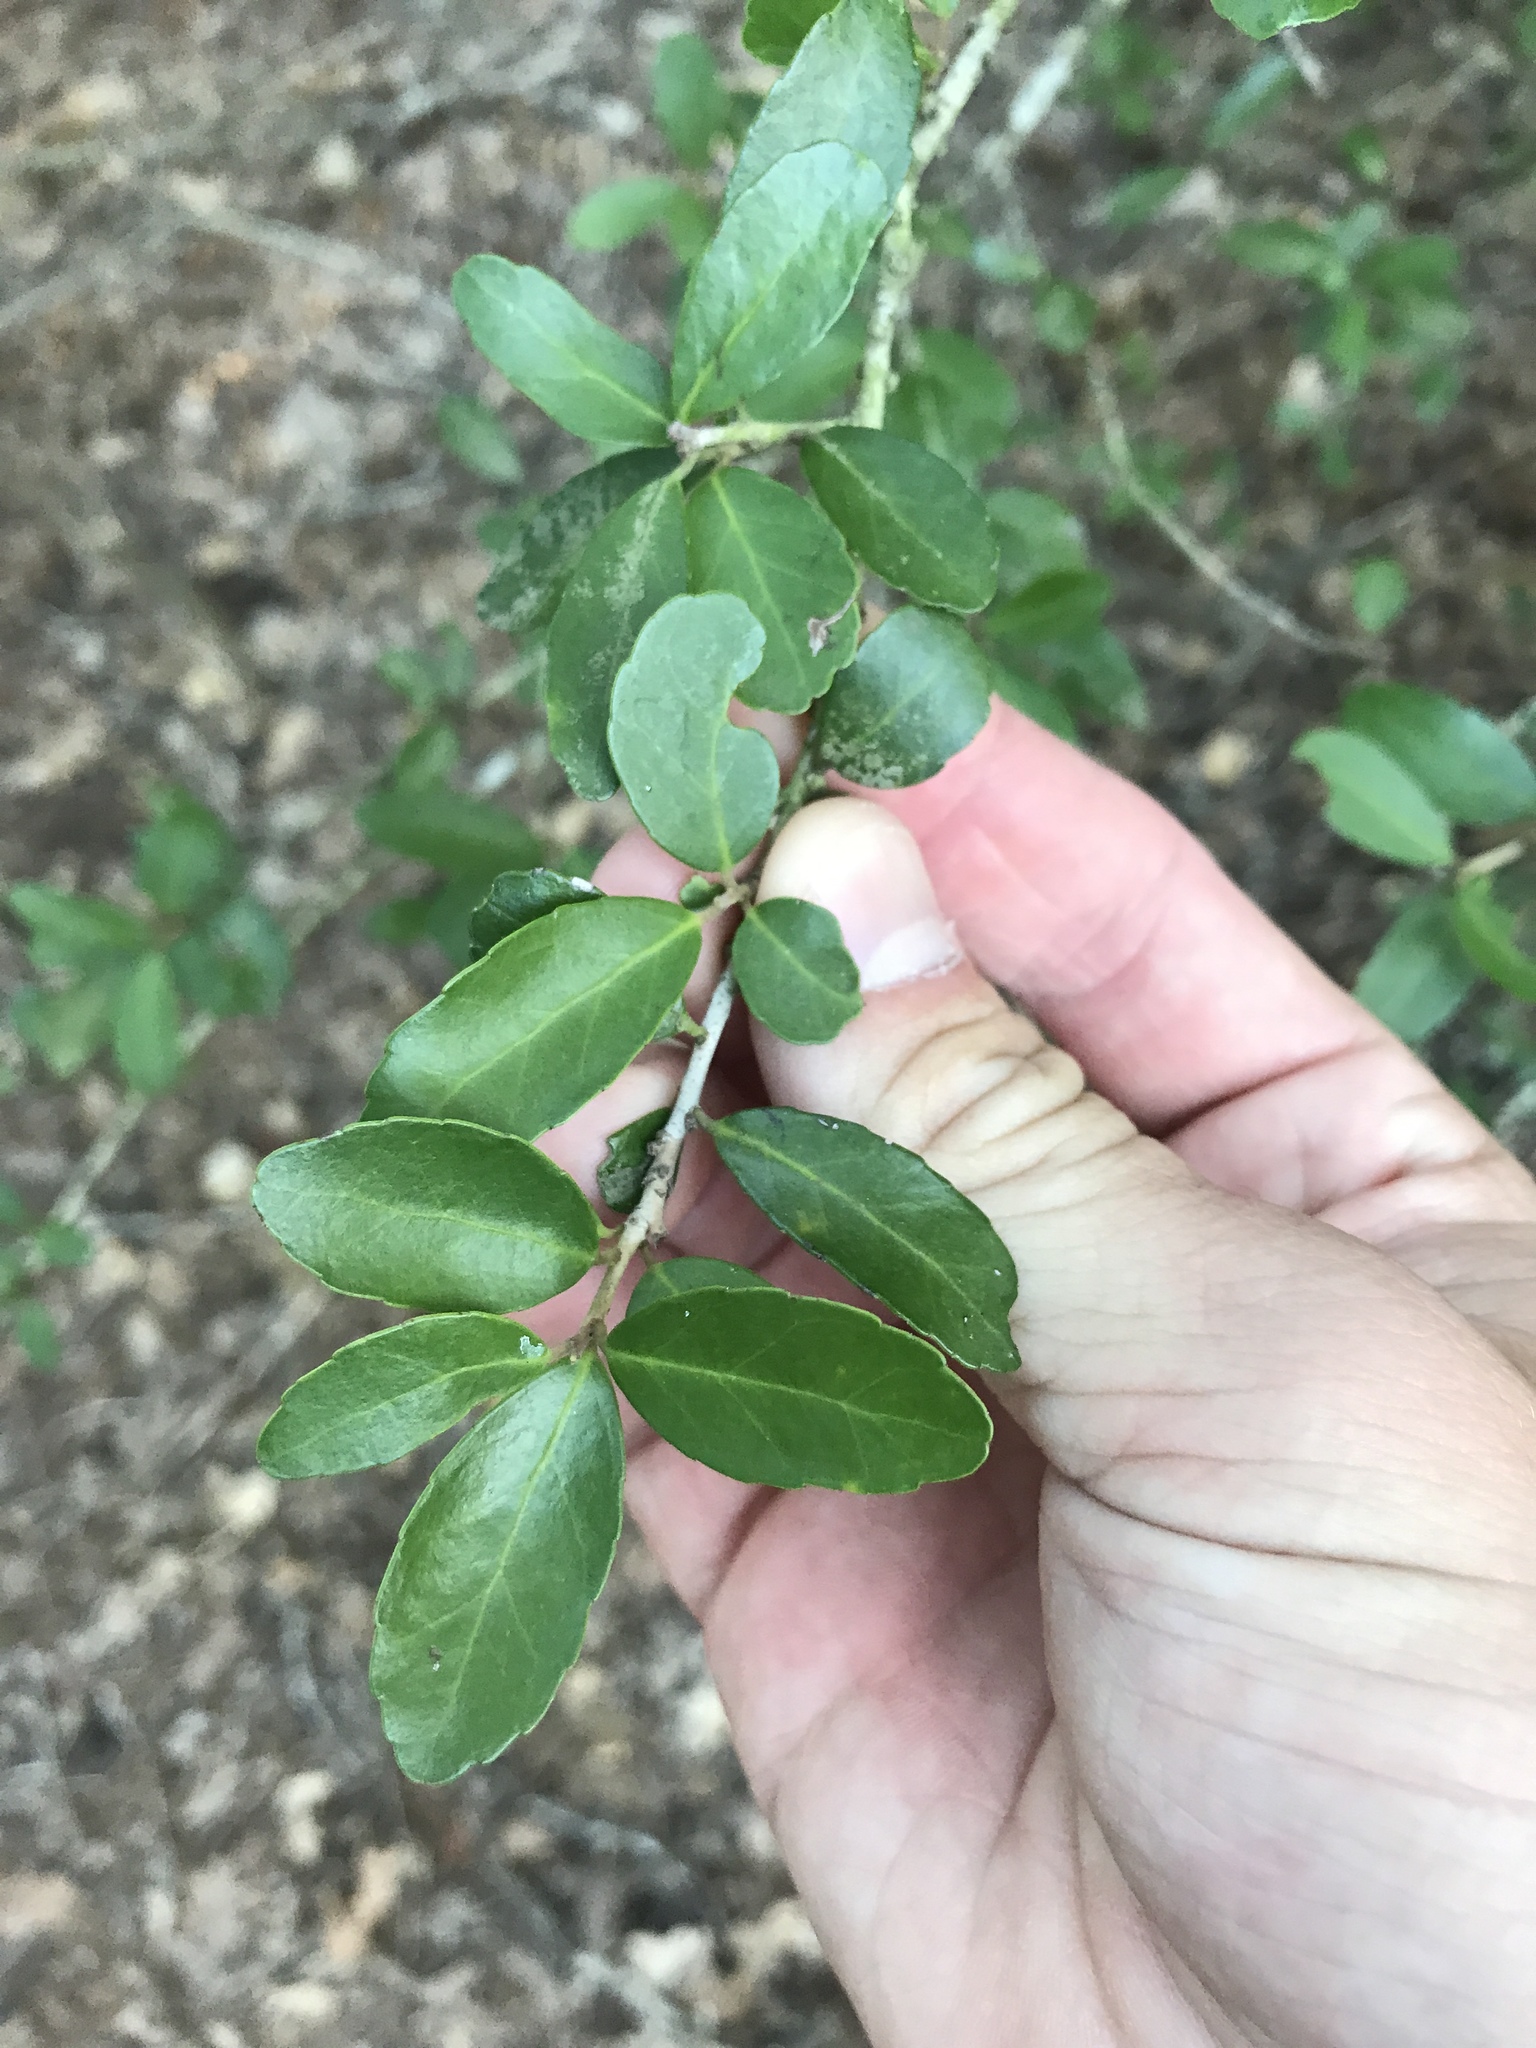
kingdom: Plantae
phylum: Tracheophyta
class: Magnoliopsida
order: Aquifoliales
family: Aquifoliaceae
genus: Ilex
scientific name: Ilex vomitoria
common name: Yaupon holly
